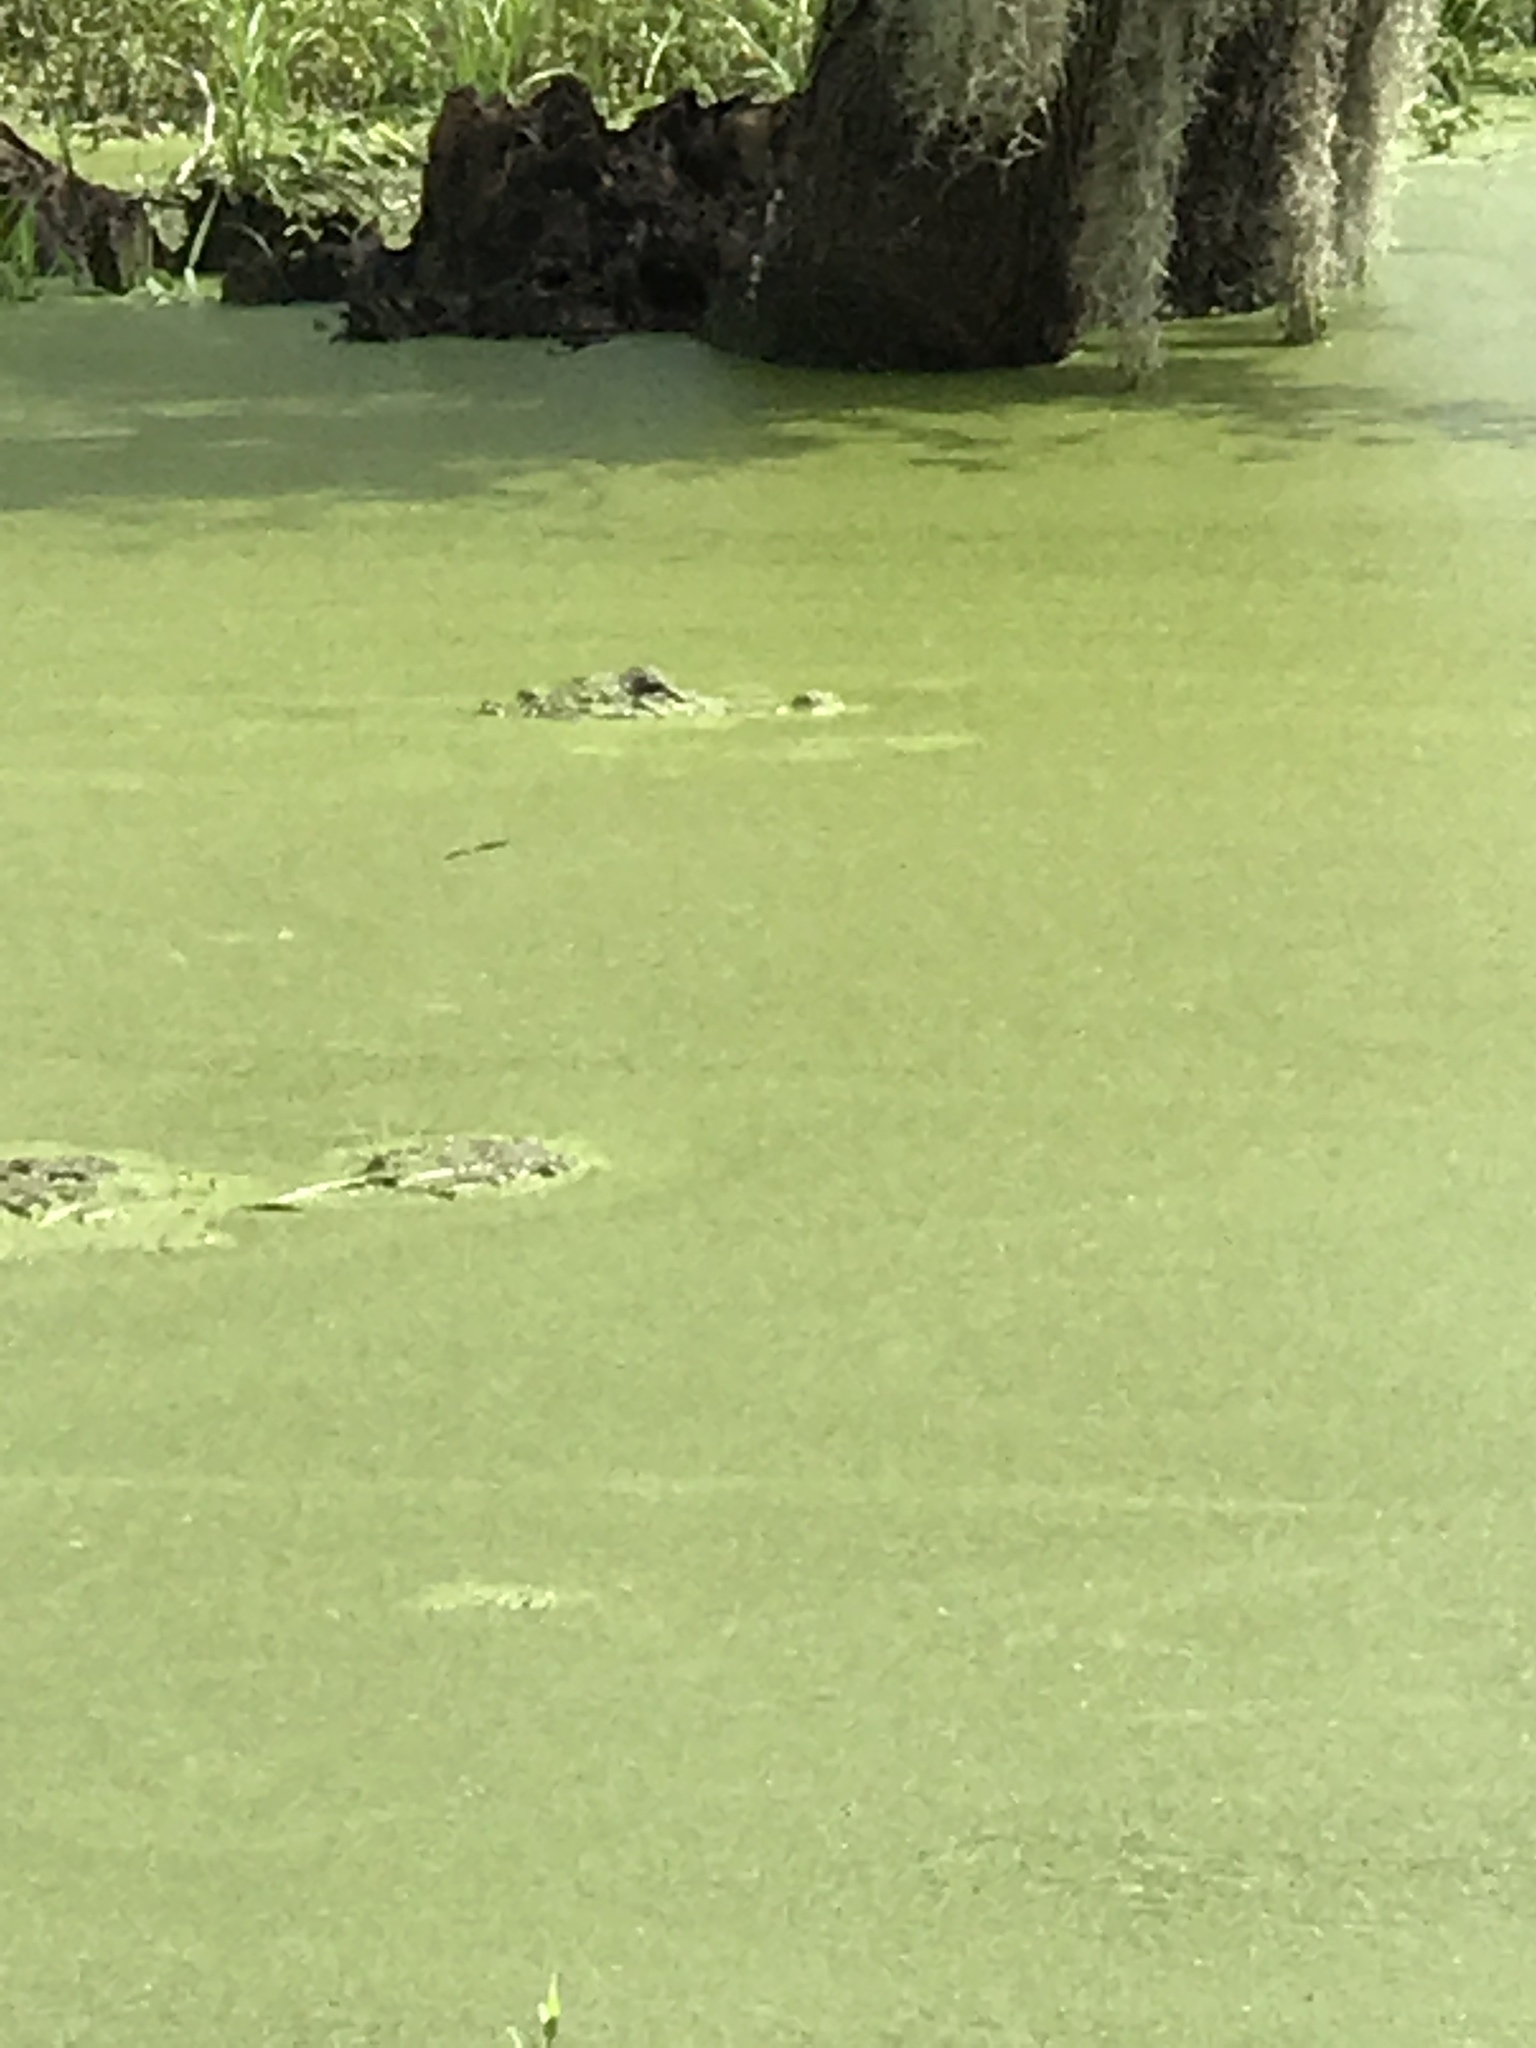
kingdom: Animalia
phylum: Chordata
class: Crocodylia
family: Alligatoridae
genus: Alligator
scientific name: Alligator mississippiensis
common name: American alligator
